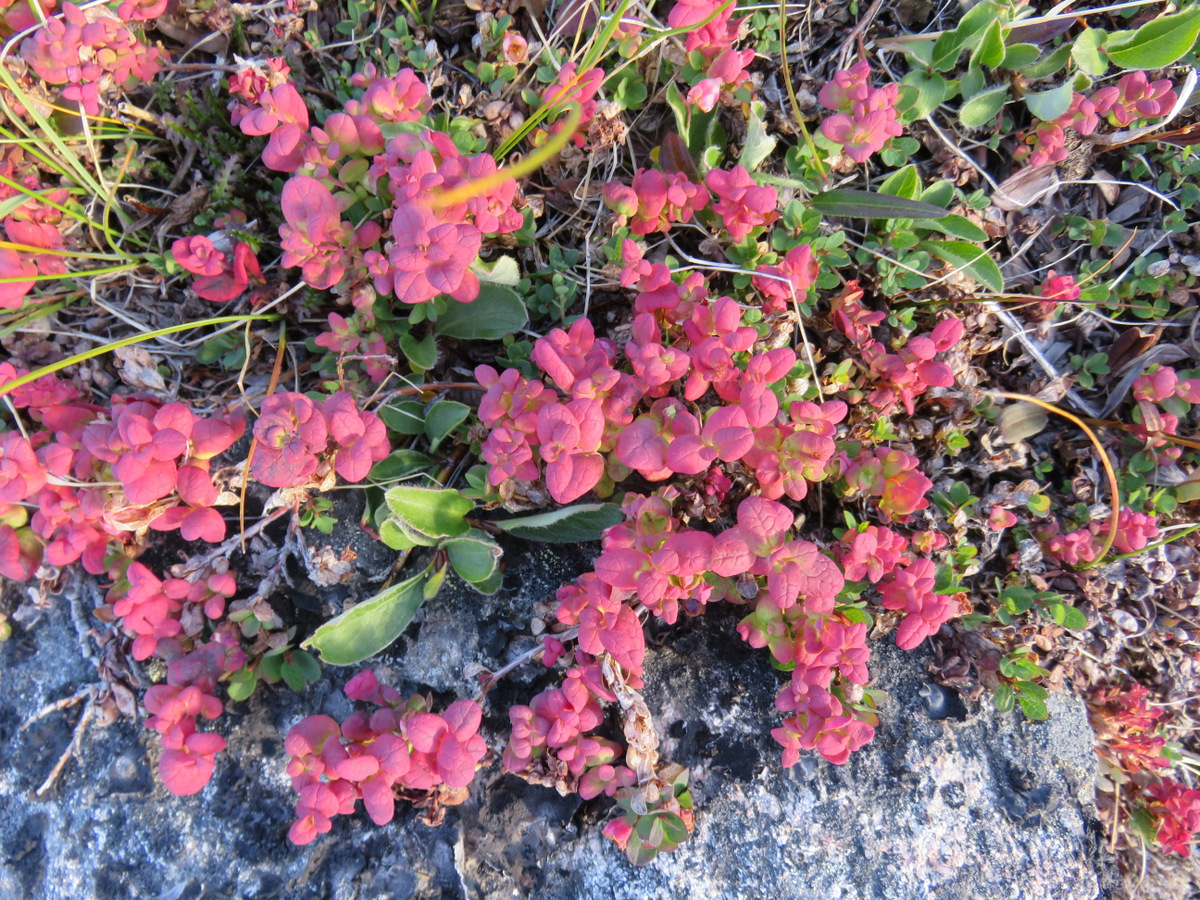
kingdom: Plantae
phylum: Tracheophyta
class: Magnoliopsida
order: Ericales
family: Ericaceae
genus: Vaccinium
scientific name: Vaccinium uliginosum
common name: Bog bilberry
